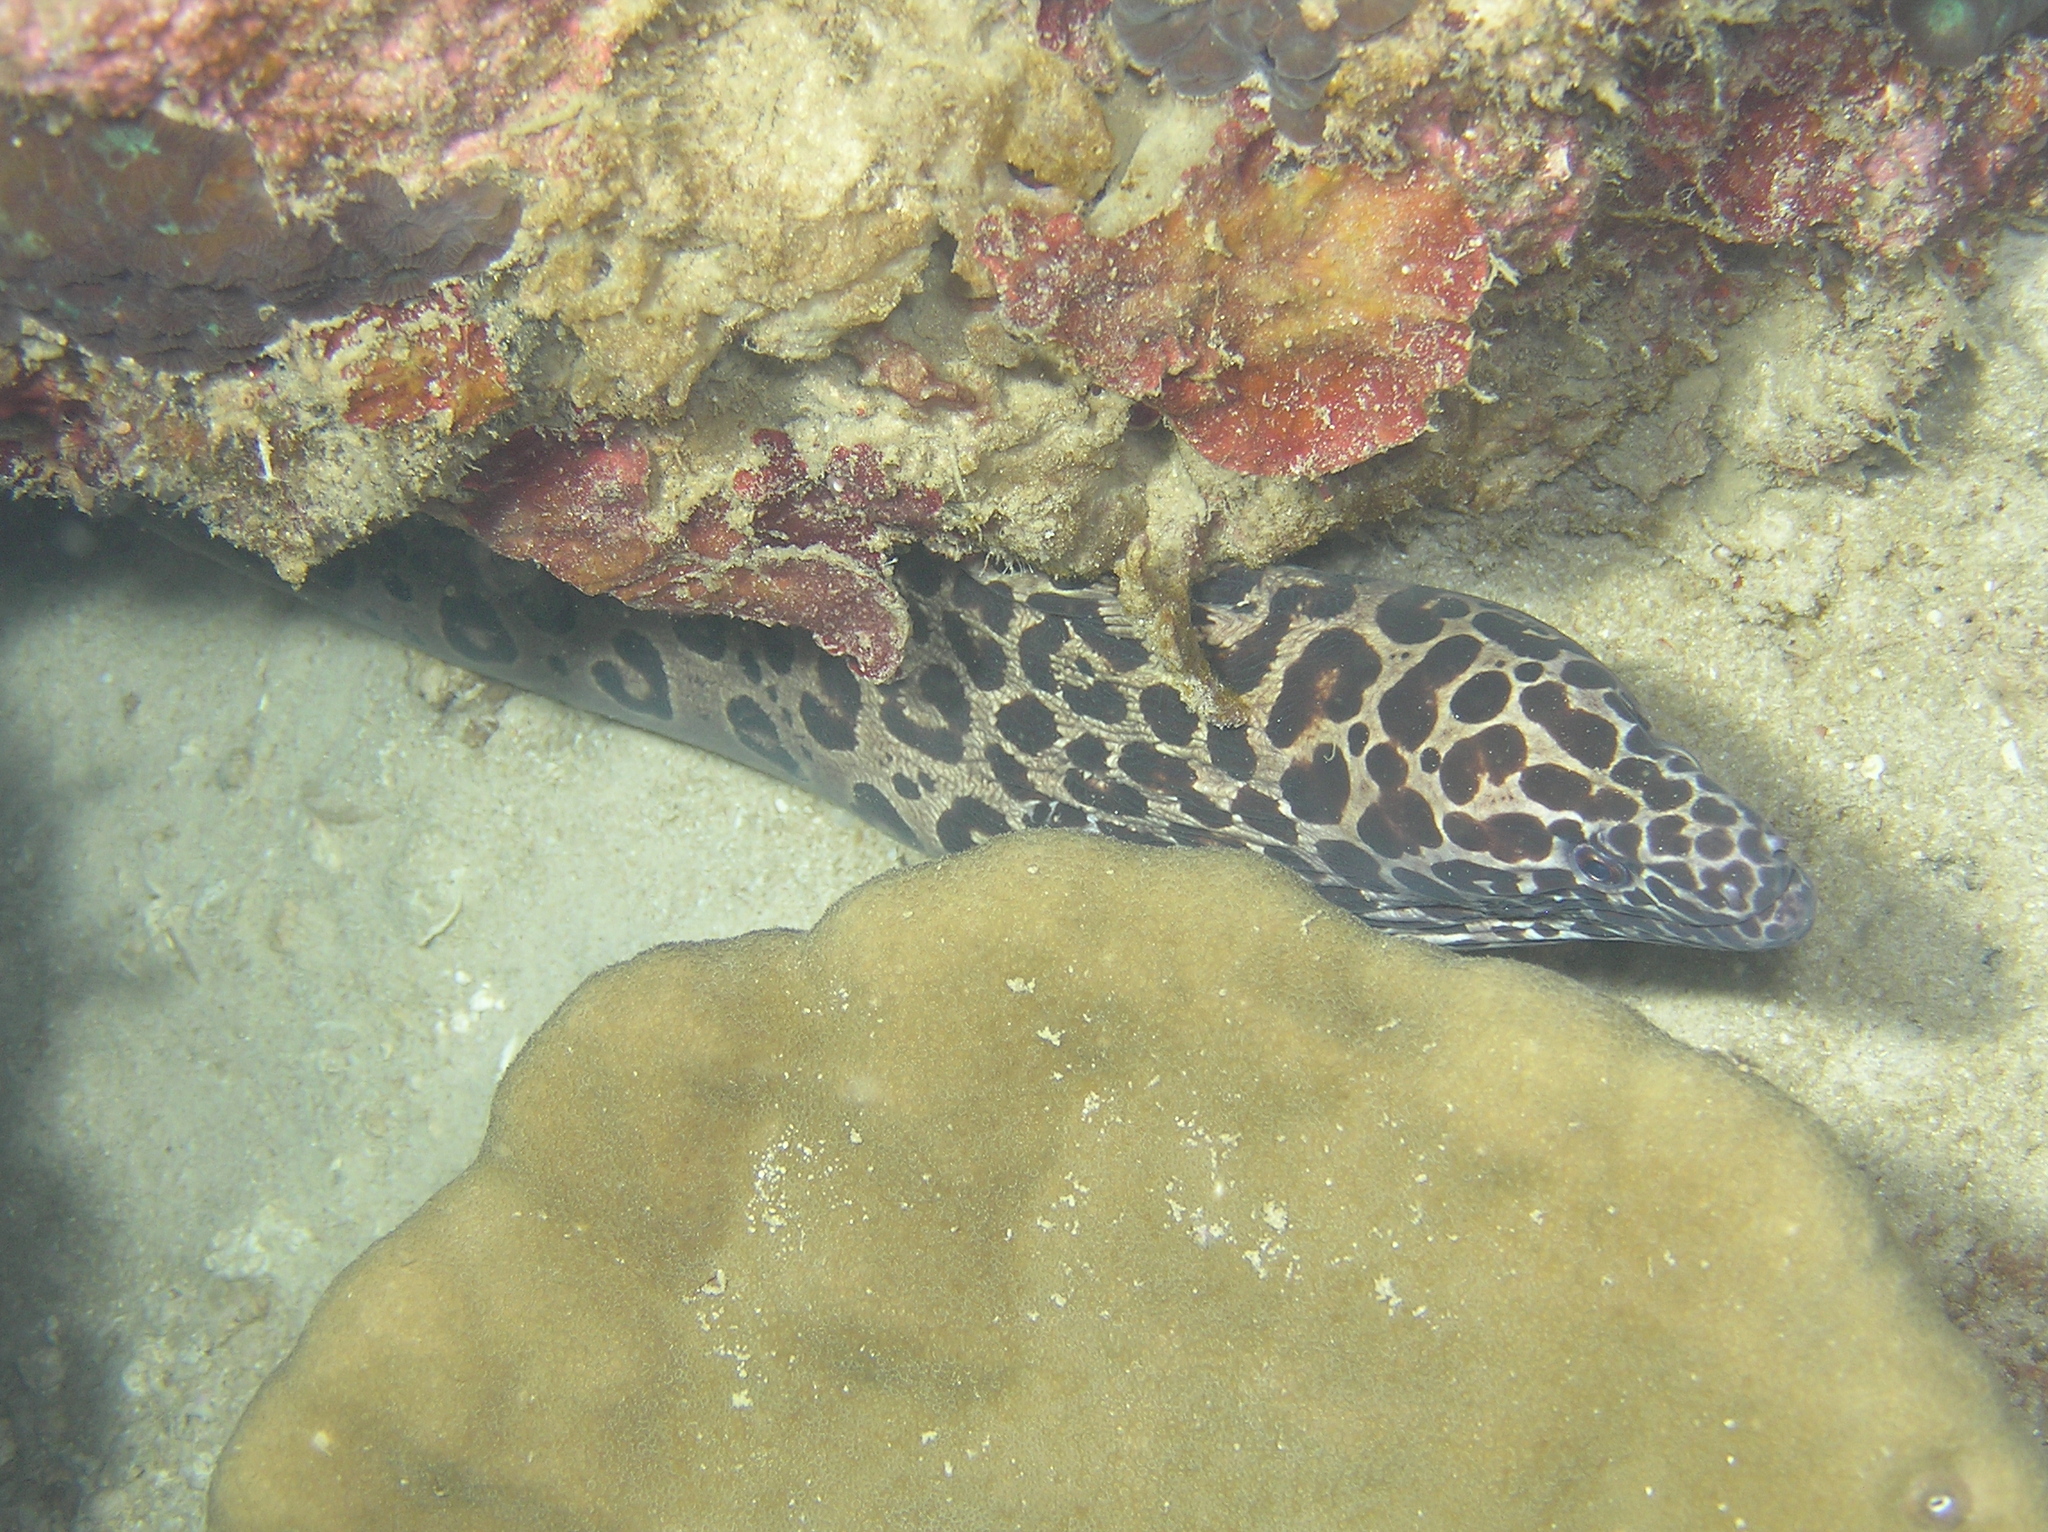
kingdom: Animalia
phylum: Chordata
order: Anguilliformes
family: Muraenidae
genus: Gymnothorax
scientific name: Gymnothorax isingteena
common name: Spotted moray
